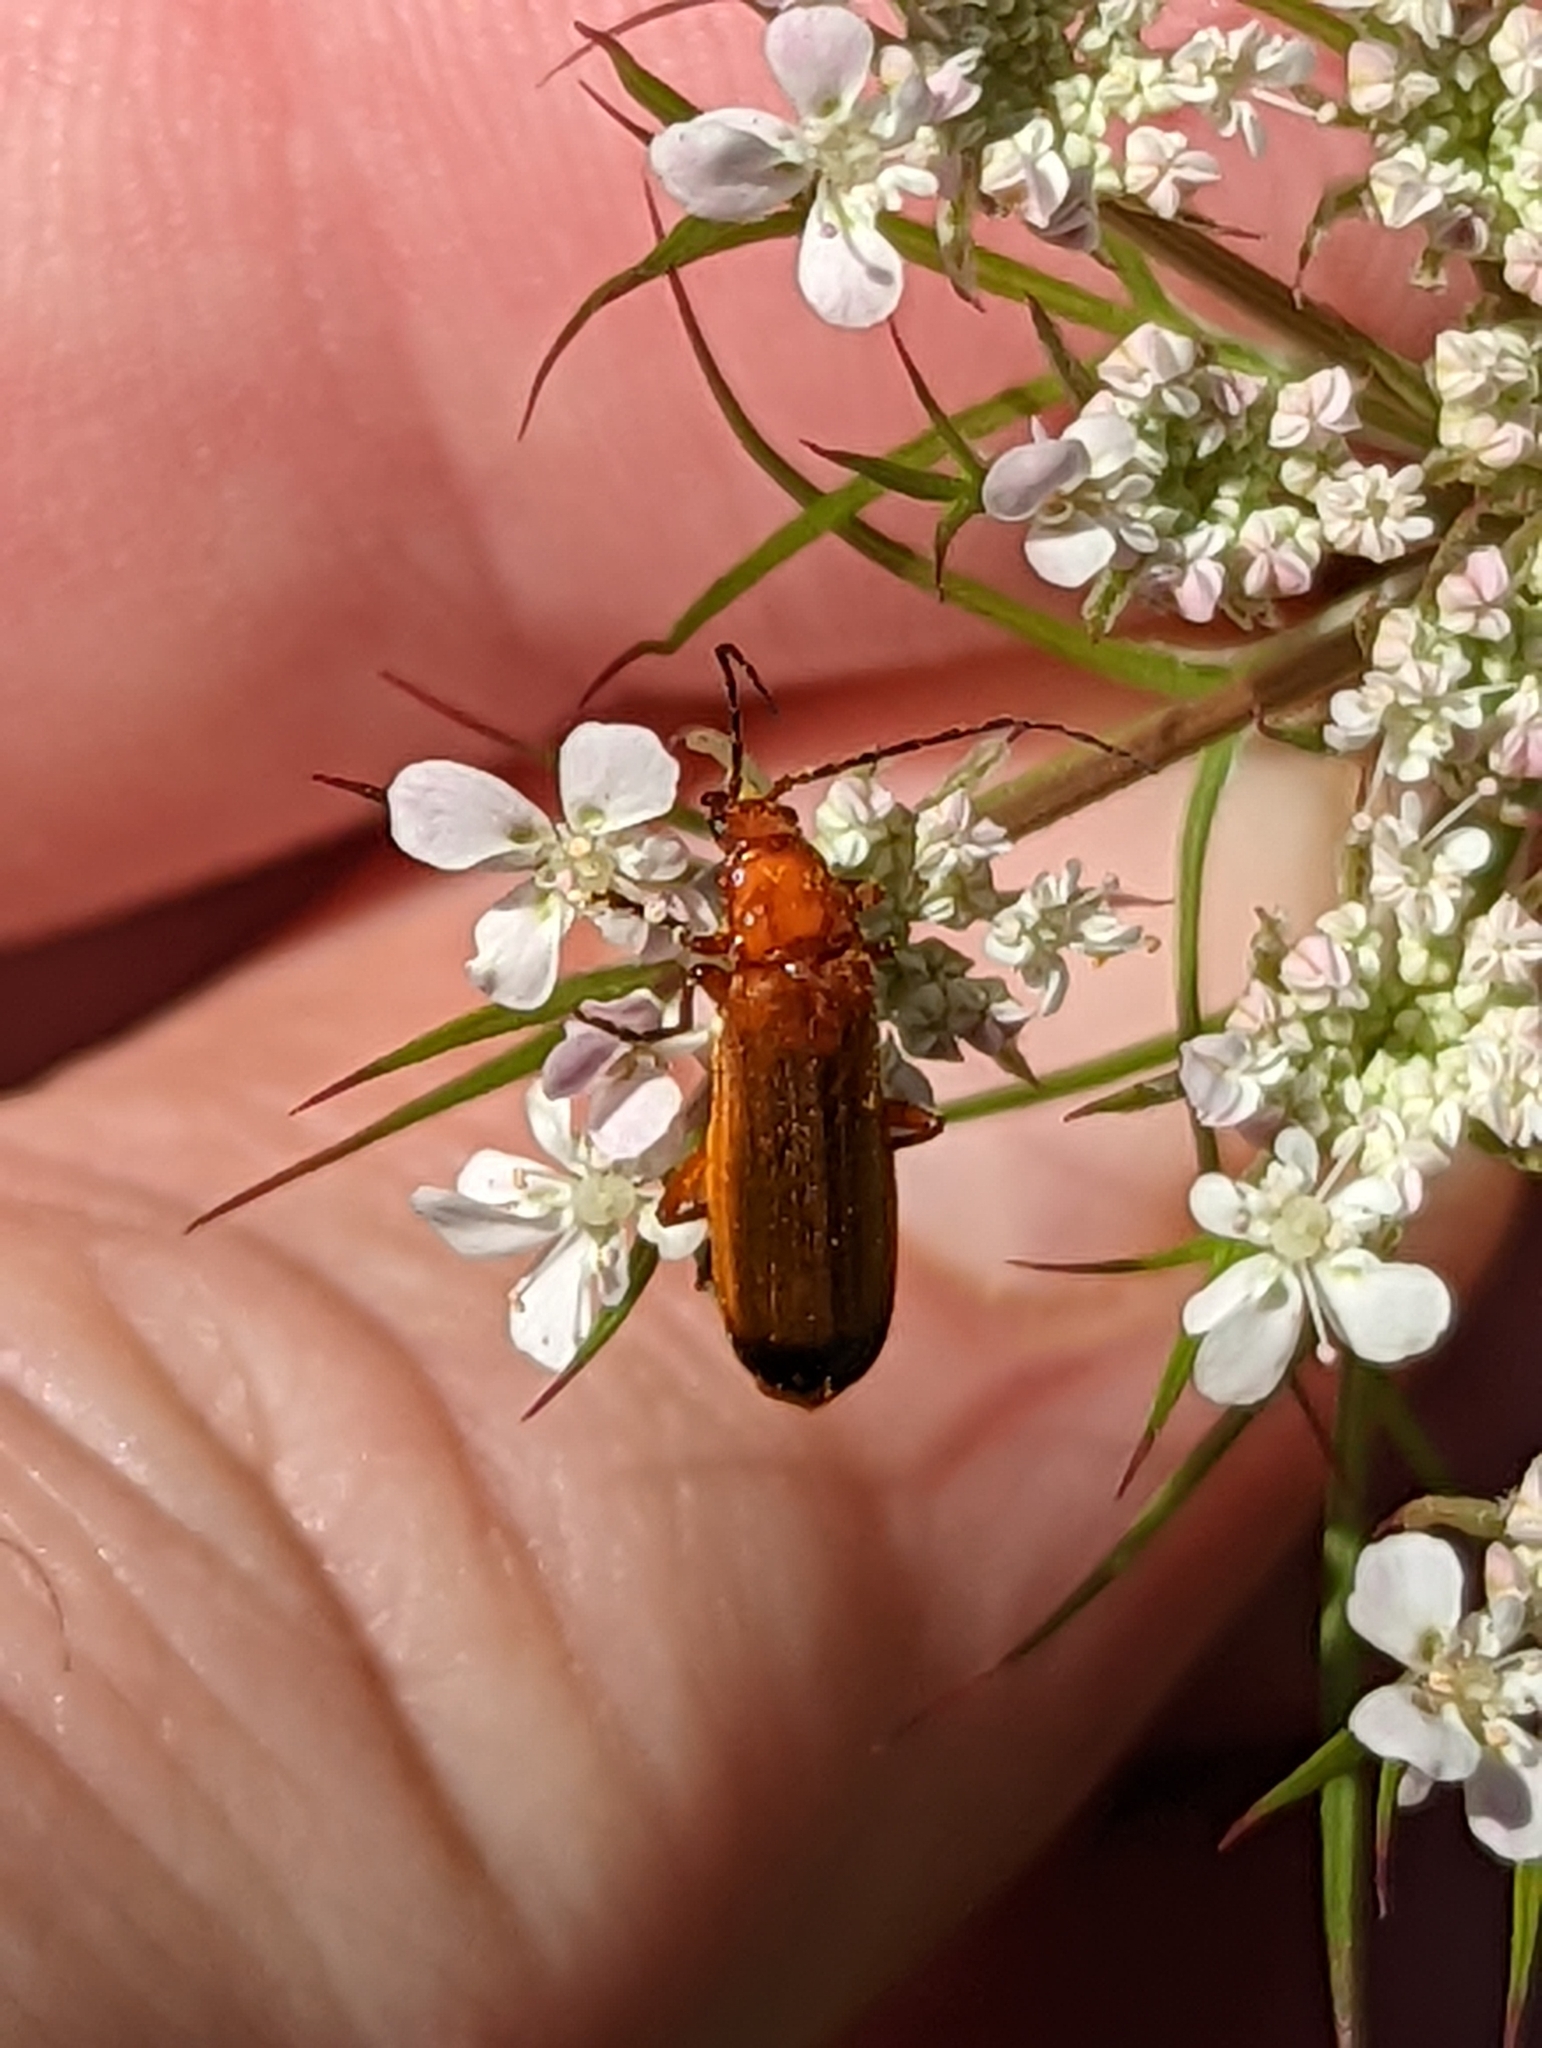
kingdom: Animalia
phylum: Arthropoda
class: Insecta
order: Coleoptera
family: Cantharidae
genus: Rhagonycha
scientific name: Rhagonycha fulva
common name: Common red soldier beetle
